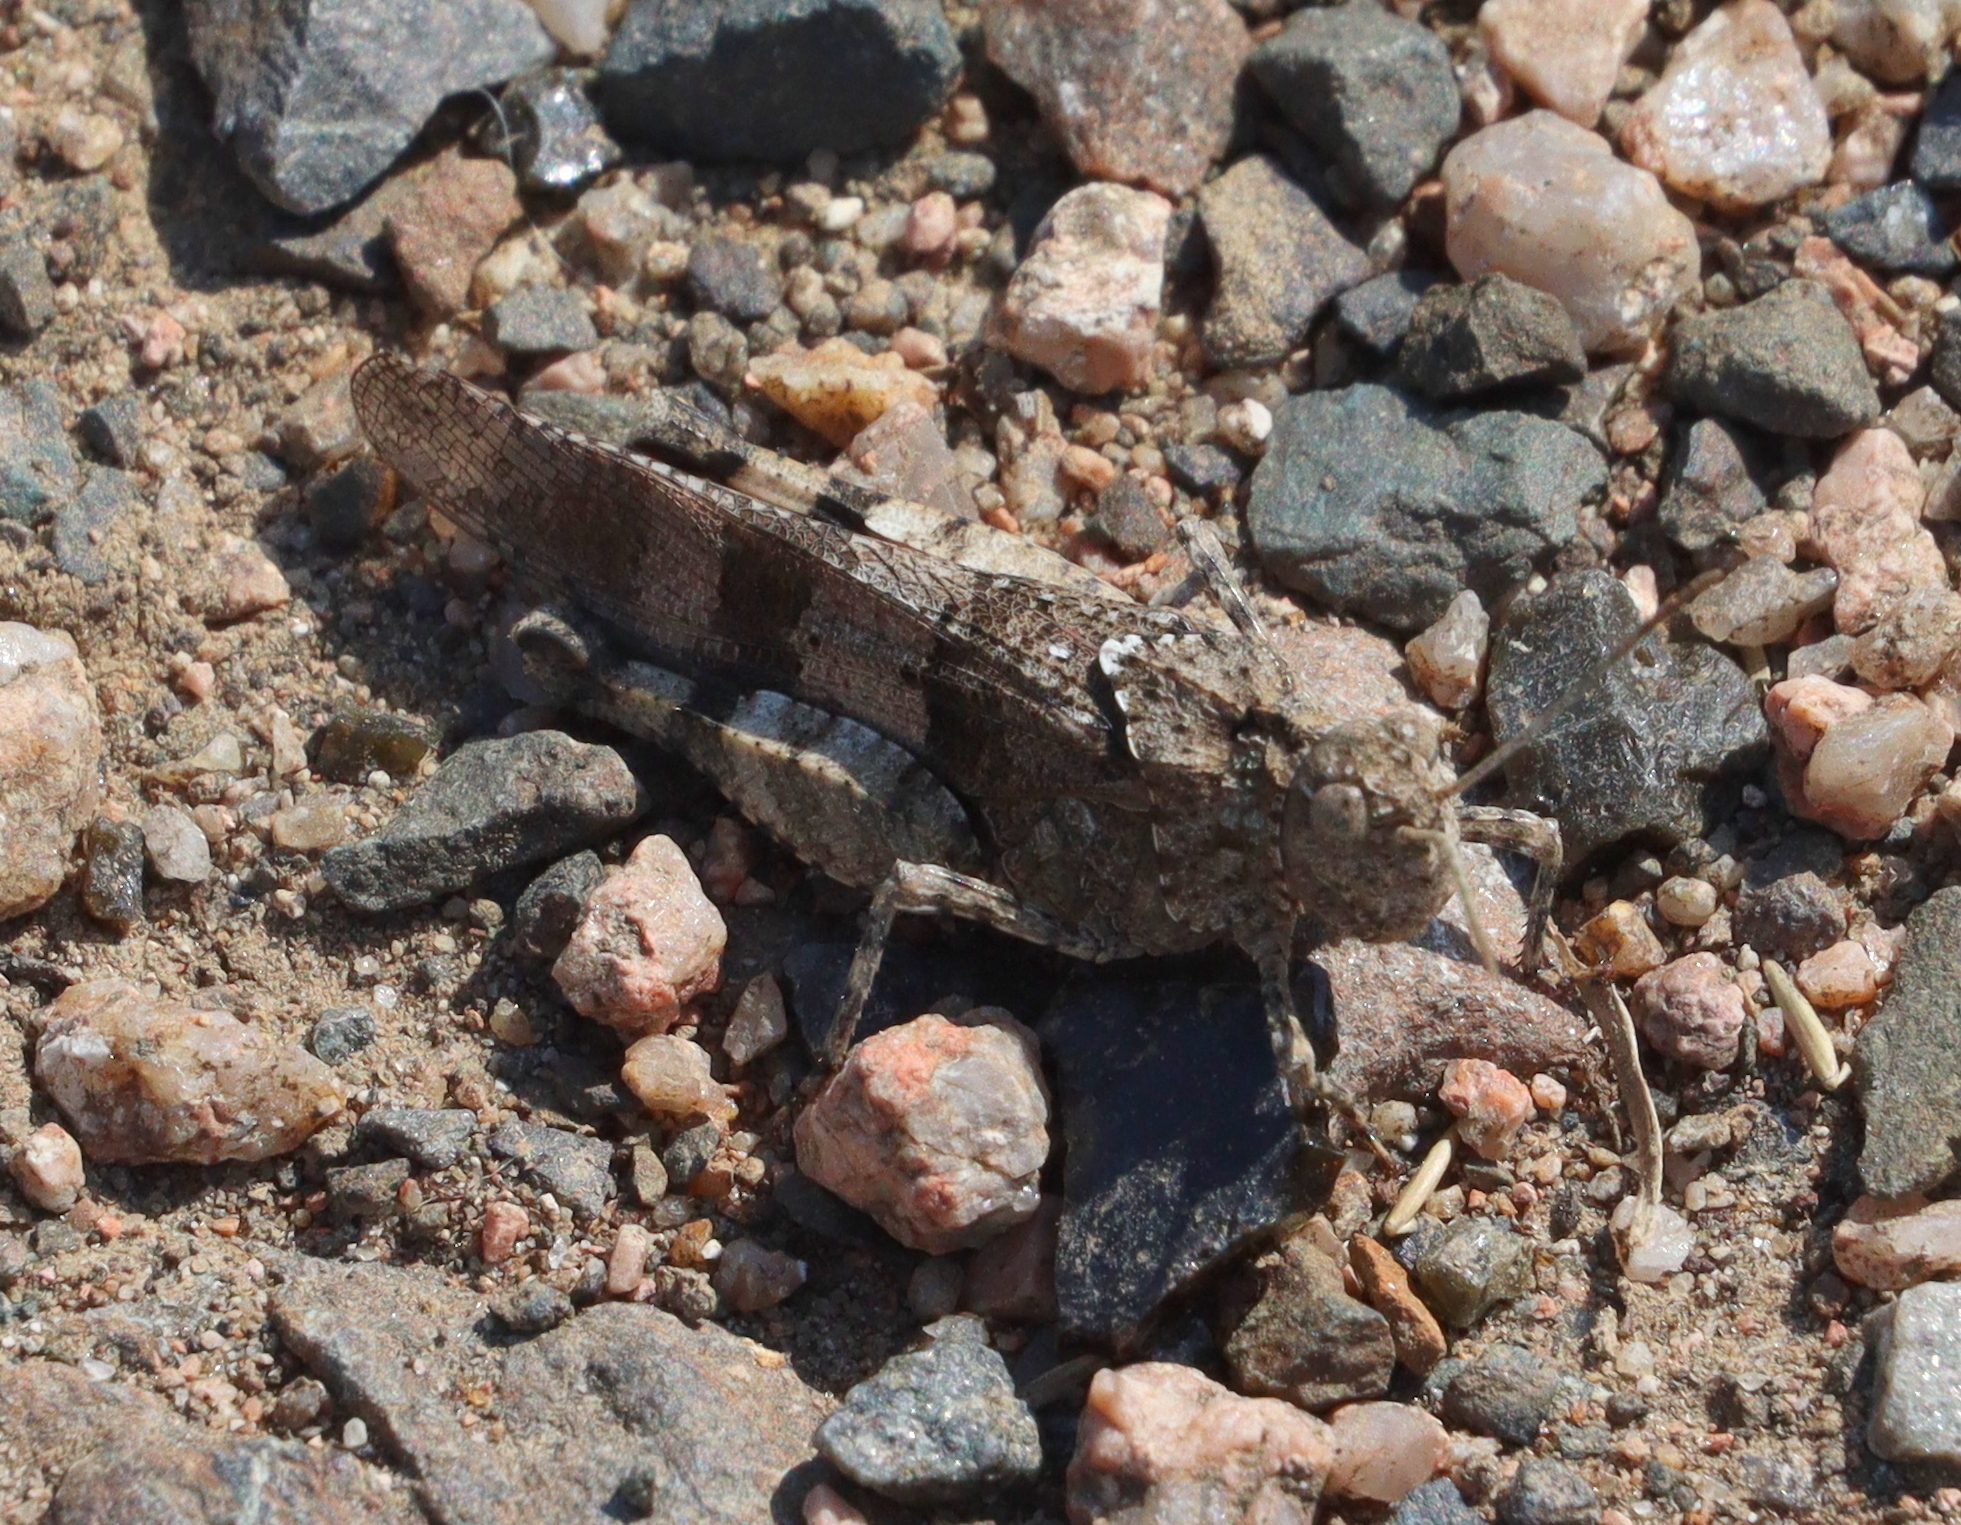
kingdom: Animalia
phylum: Arthropoda
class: Insecta
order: Orthoptera
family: Acrididae
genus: Oedipoda
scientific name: Oedipoda caerulescens
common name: Blue-winged grasshopper
